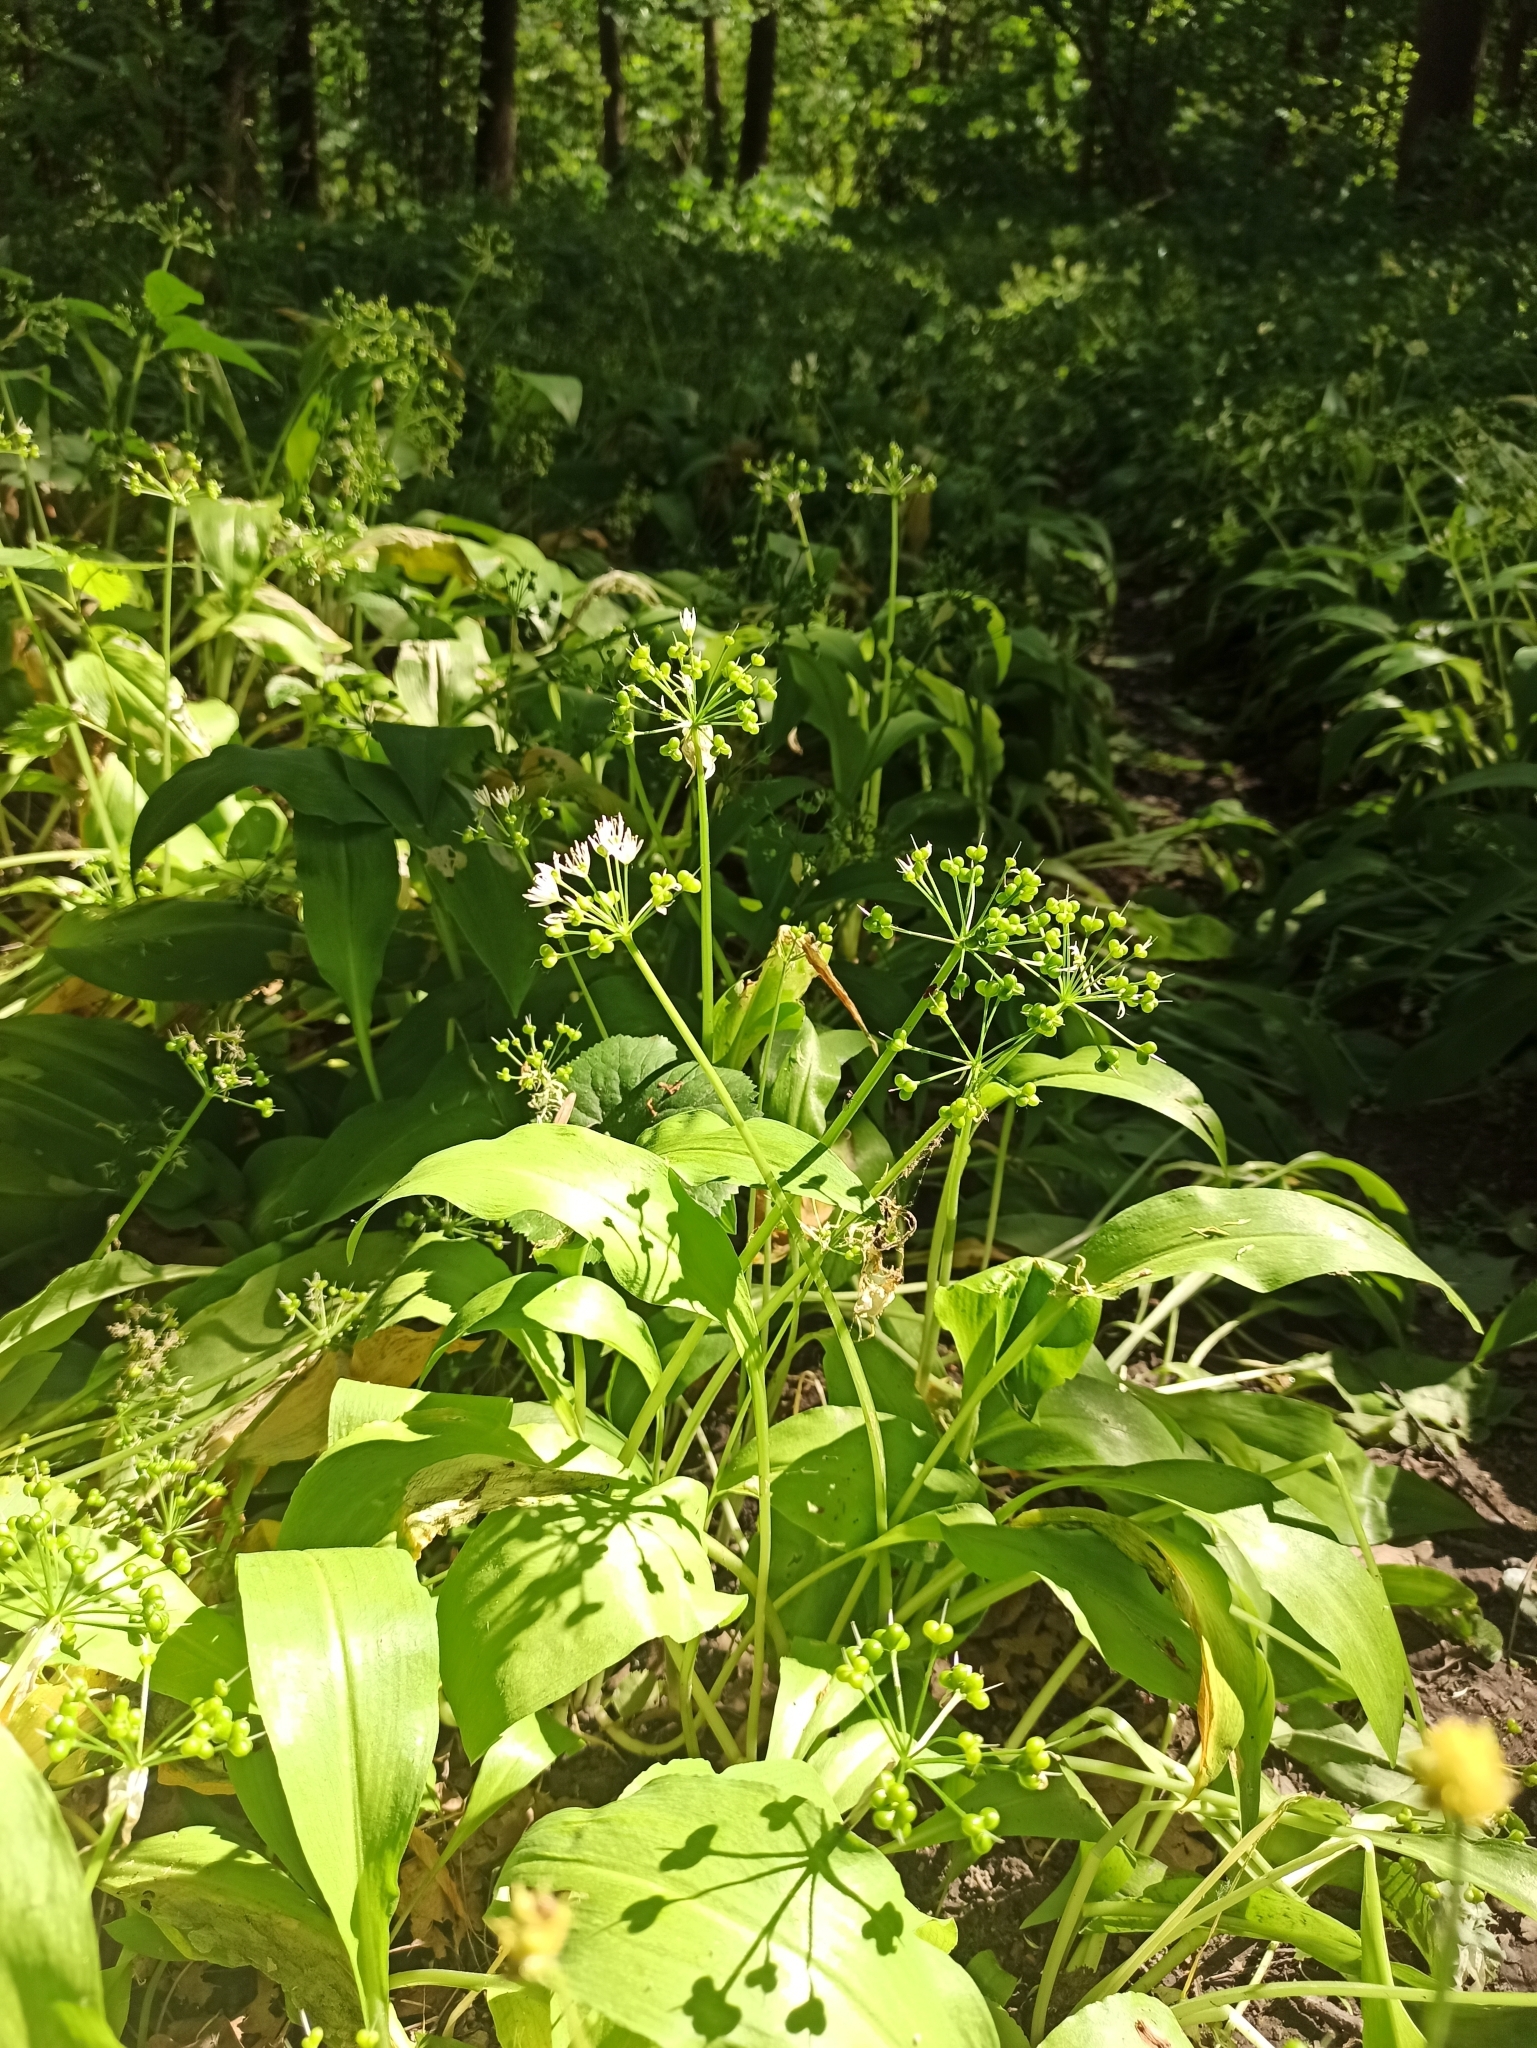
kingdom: Plantae
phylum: Tracheophyta
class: Liliopsida
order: Asparagales
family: Amaryllidaceae
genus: Allium
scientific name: Allium ursinum
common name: Ramsons
